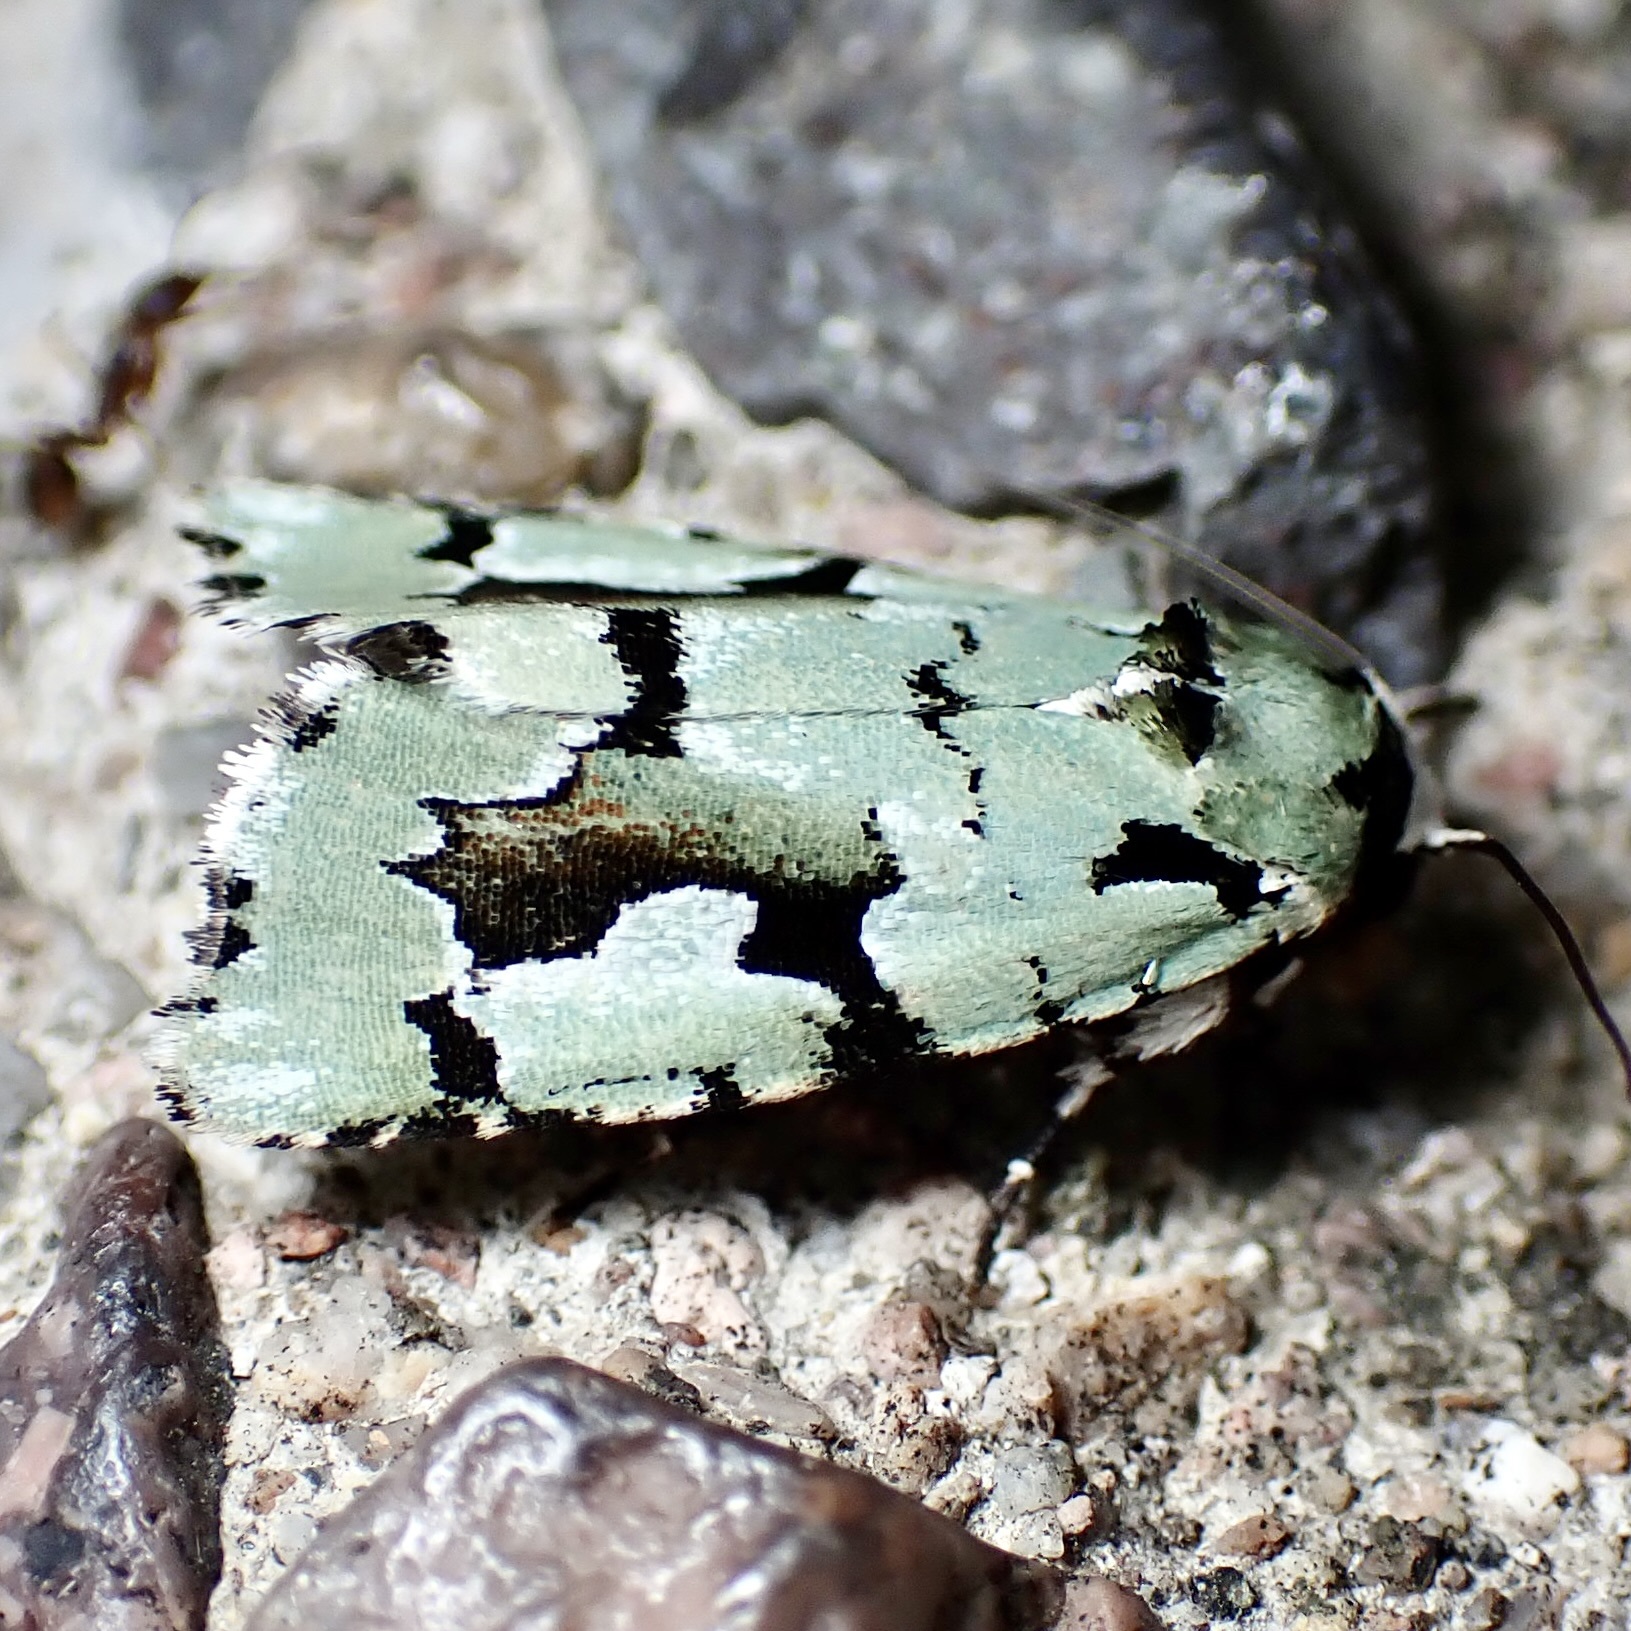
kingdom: Animalia
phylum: Arthropoda
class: Insecta
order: Lepidoptera
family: Noctuidae
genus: Emarginea
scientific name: Emarginea dulcinea
